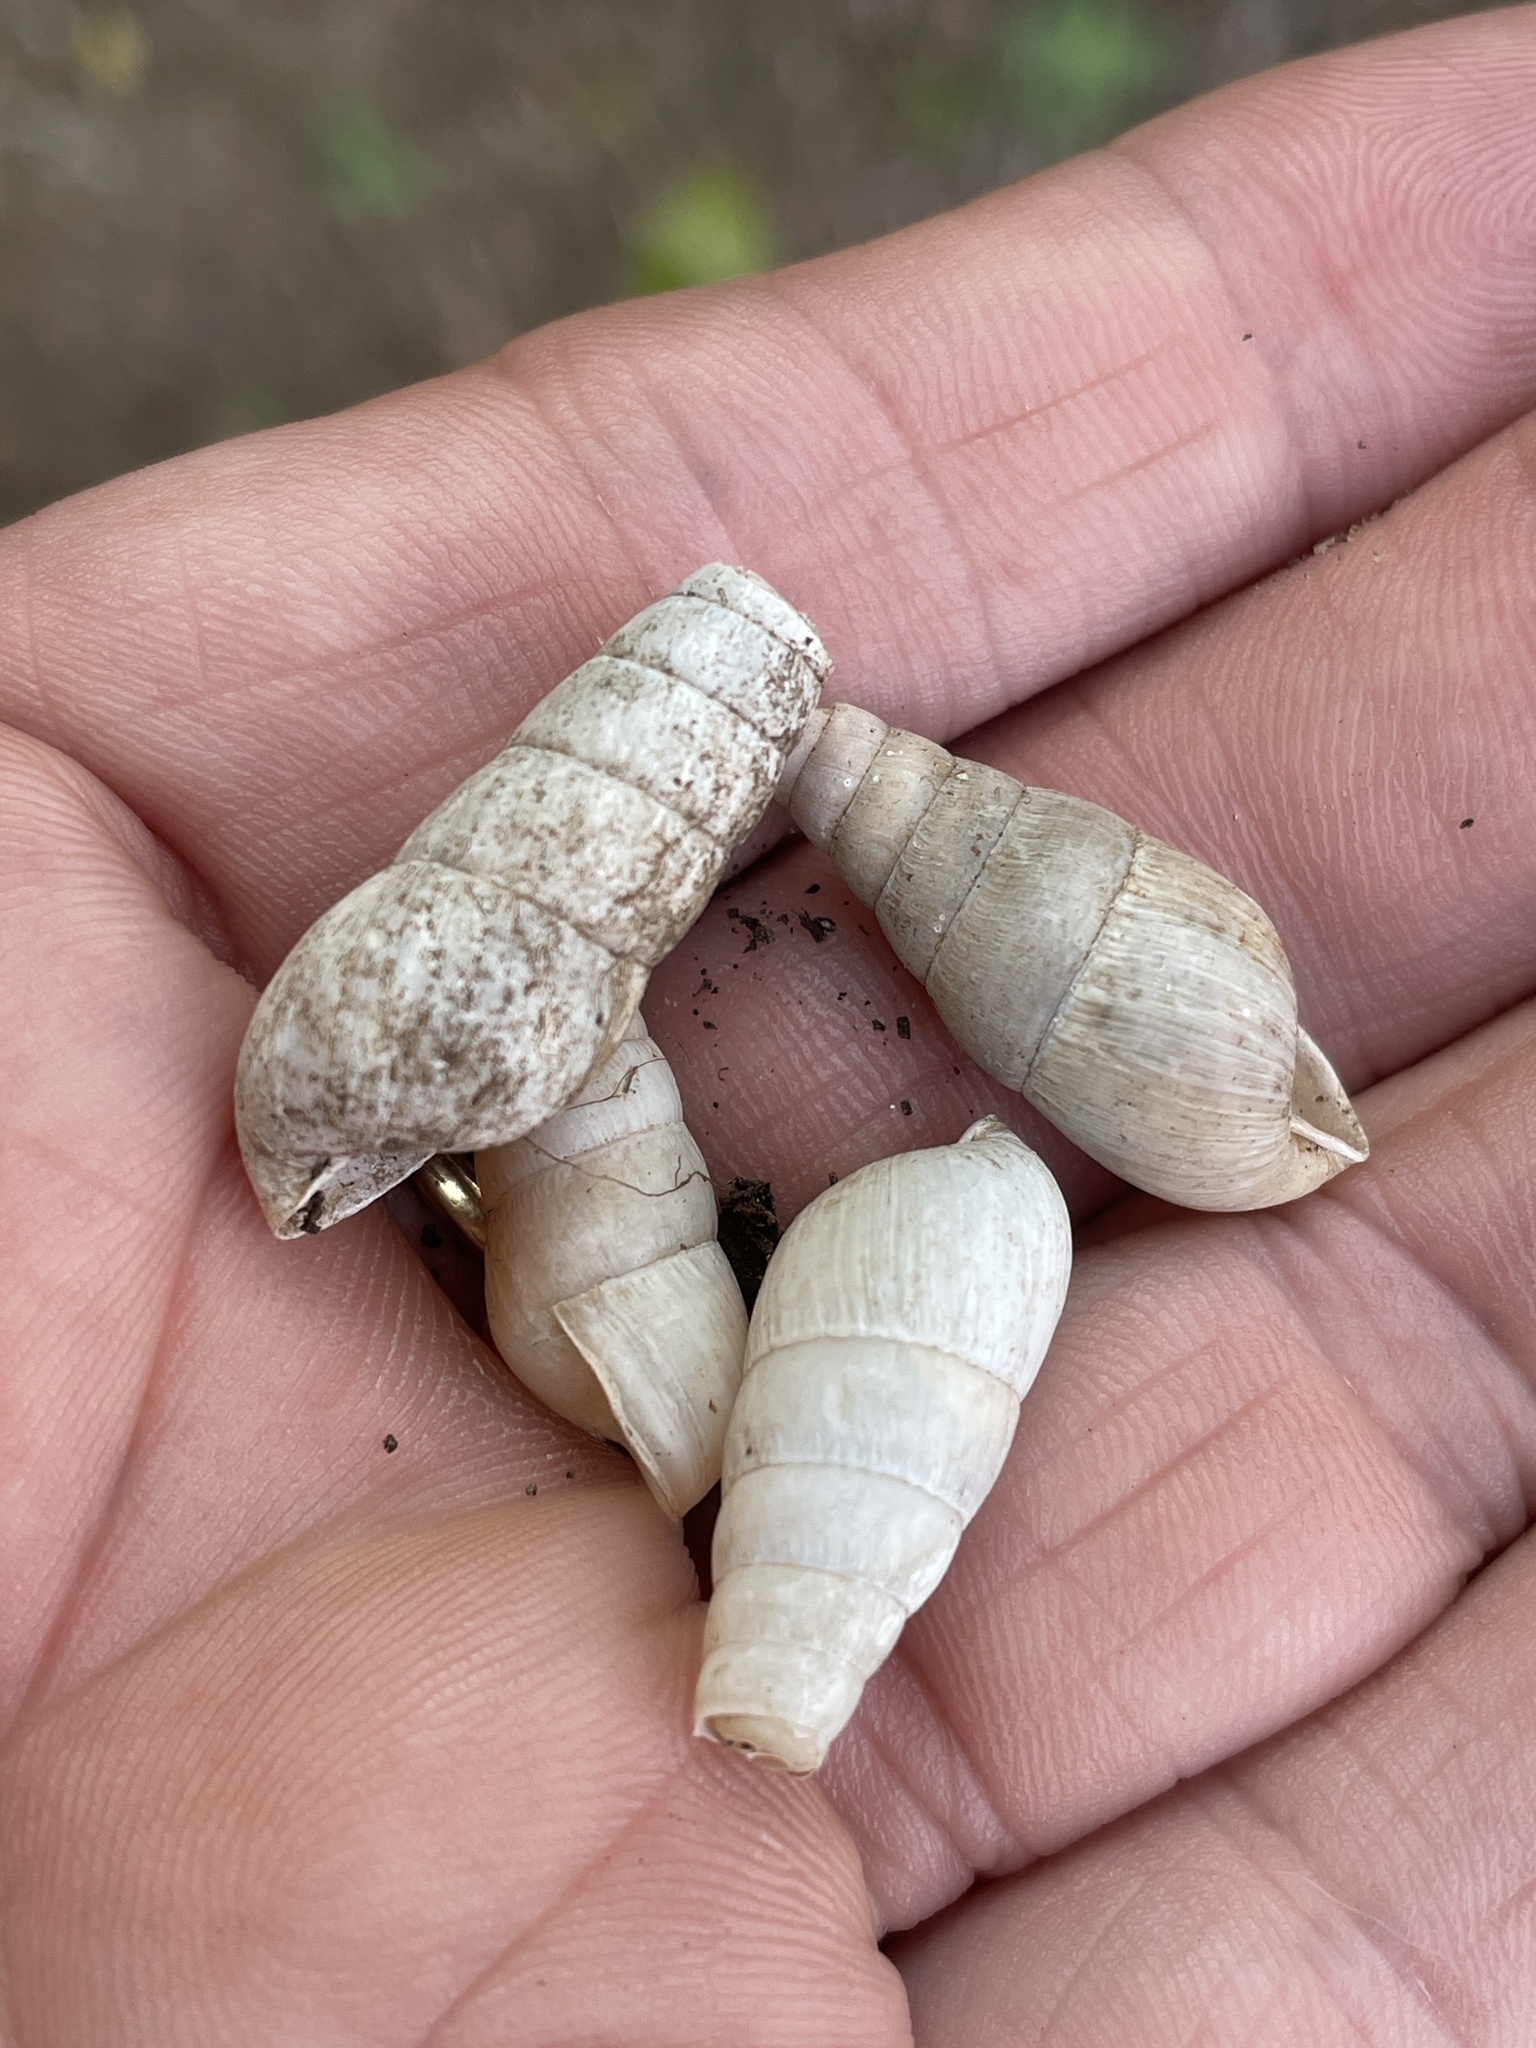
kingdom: Animalia
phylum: Mollusca
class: Gastropoda
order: Stylommatophora
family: Achatinidae
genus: Rumina
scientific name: Rumina decollata
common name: Decollate snail
